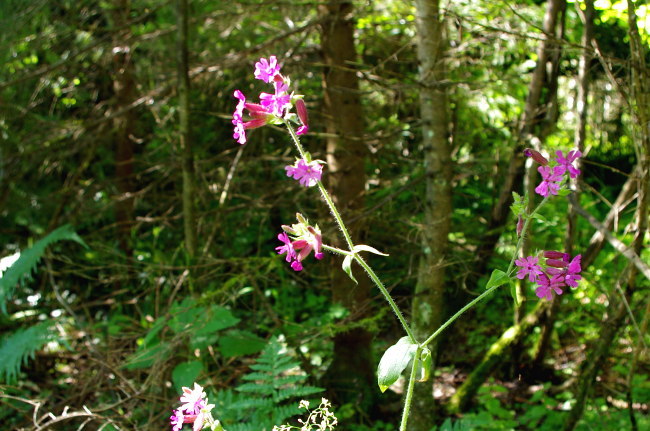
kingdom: Plantae
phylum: Tracheophyta
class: Magnoliopsida
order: Caryophyllales
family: Caryophyllaceae
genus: Silene
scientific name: Silene dioica
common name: Red campion
